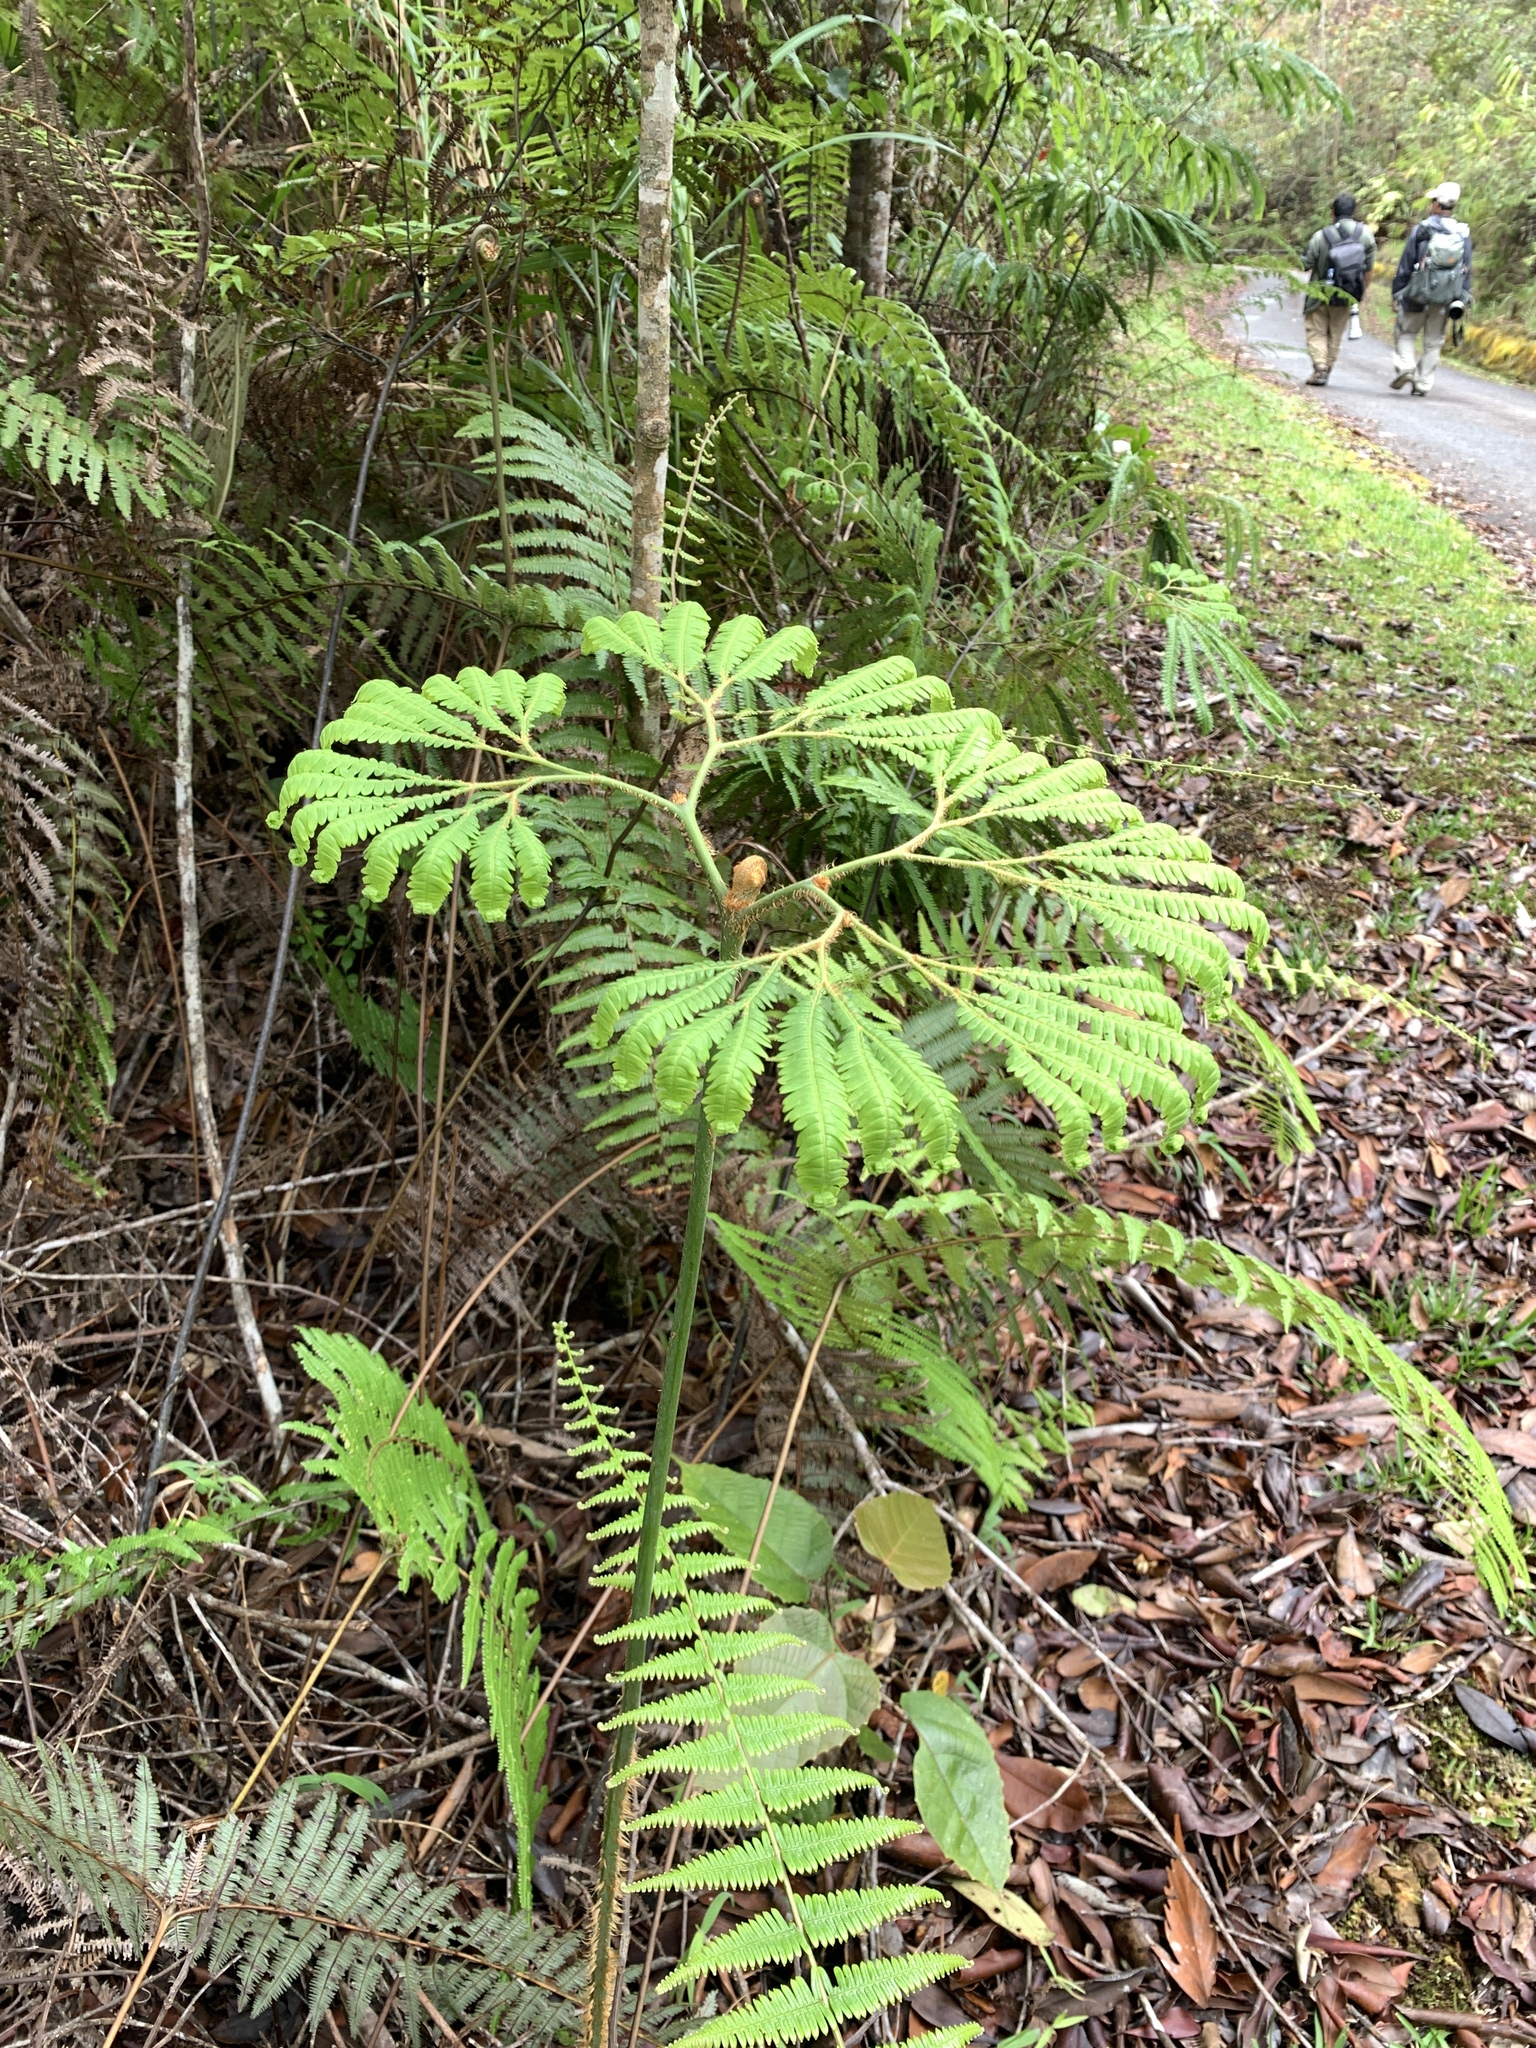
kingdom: Plantae
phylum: Tracheophyta
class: Polypodiopsida
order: Gleicheniales
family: Gleicheniaceae
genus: Sticherus
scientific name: Sticherus hirtus
